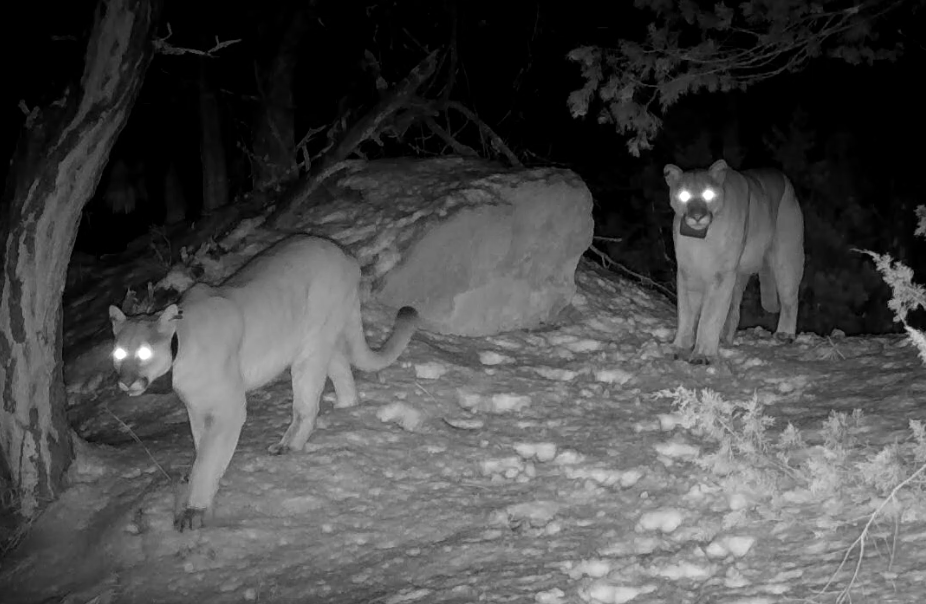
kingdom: Animalia
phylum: Chordata
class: Mammalia
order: Carnivora
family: Felidae
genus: Puma
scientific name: Puma concolor
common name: Puma
